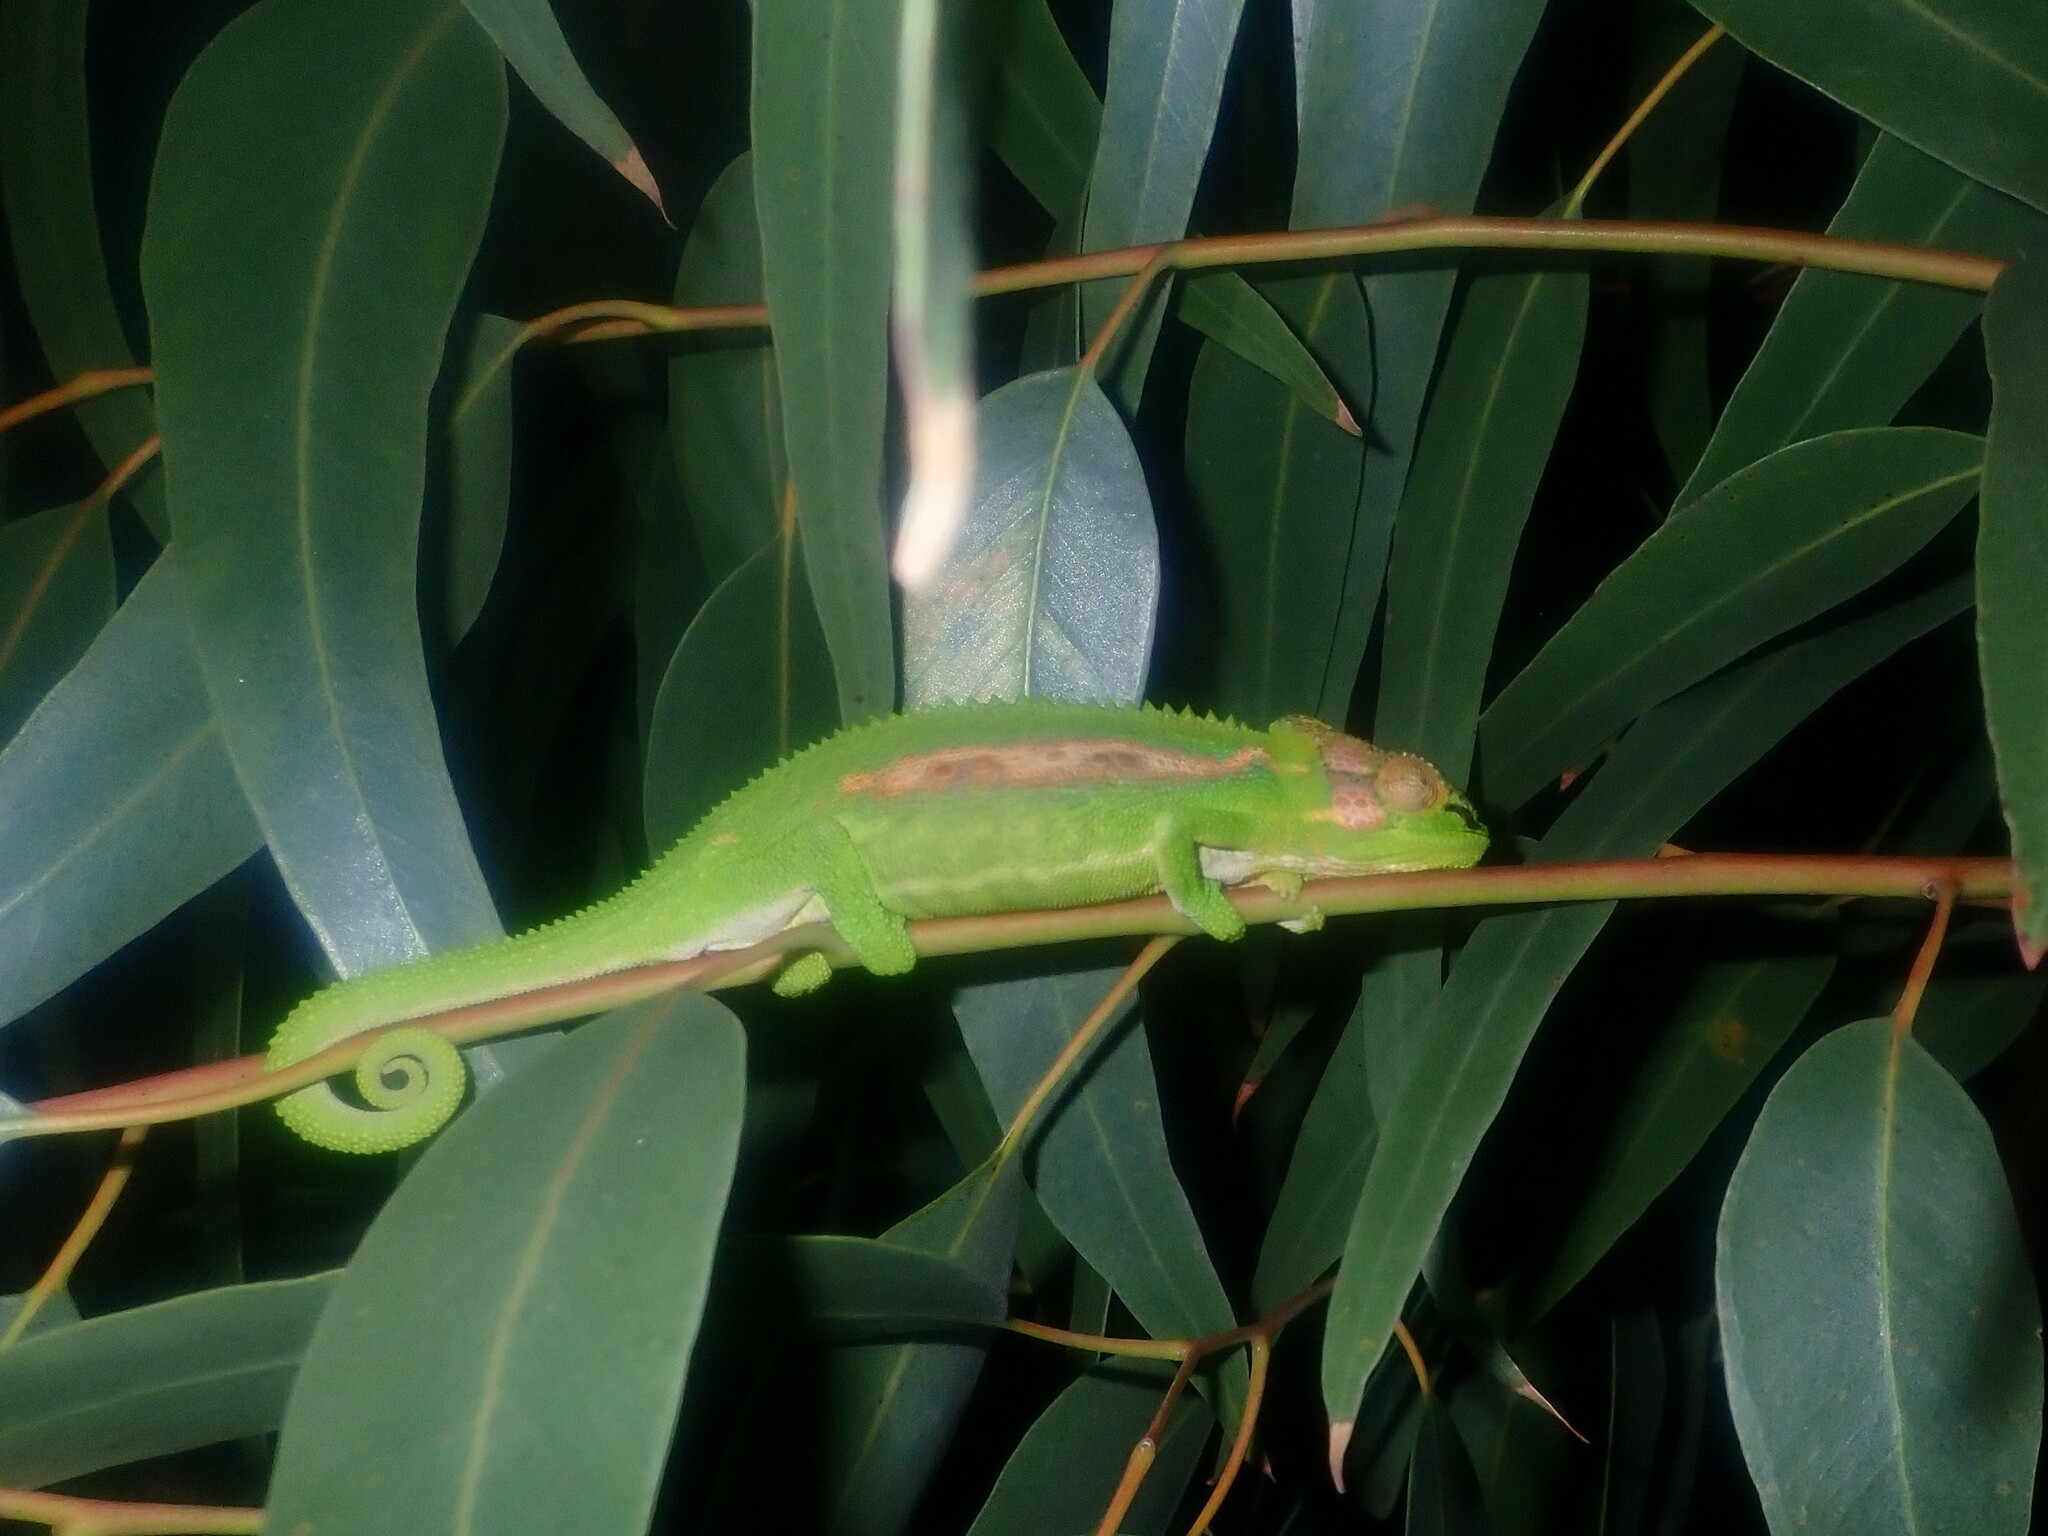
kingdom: Animalia
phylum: Chordata
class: Squamata
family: Chamaeleonidae
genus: Bradypodion
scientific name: Bradypodion pumilum
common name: Cape dwarf chameleon
